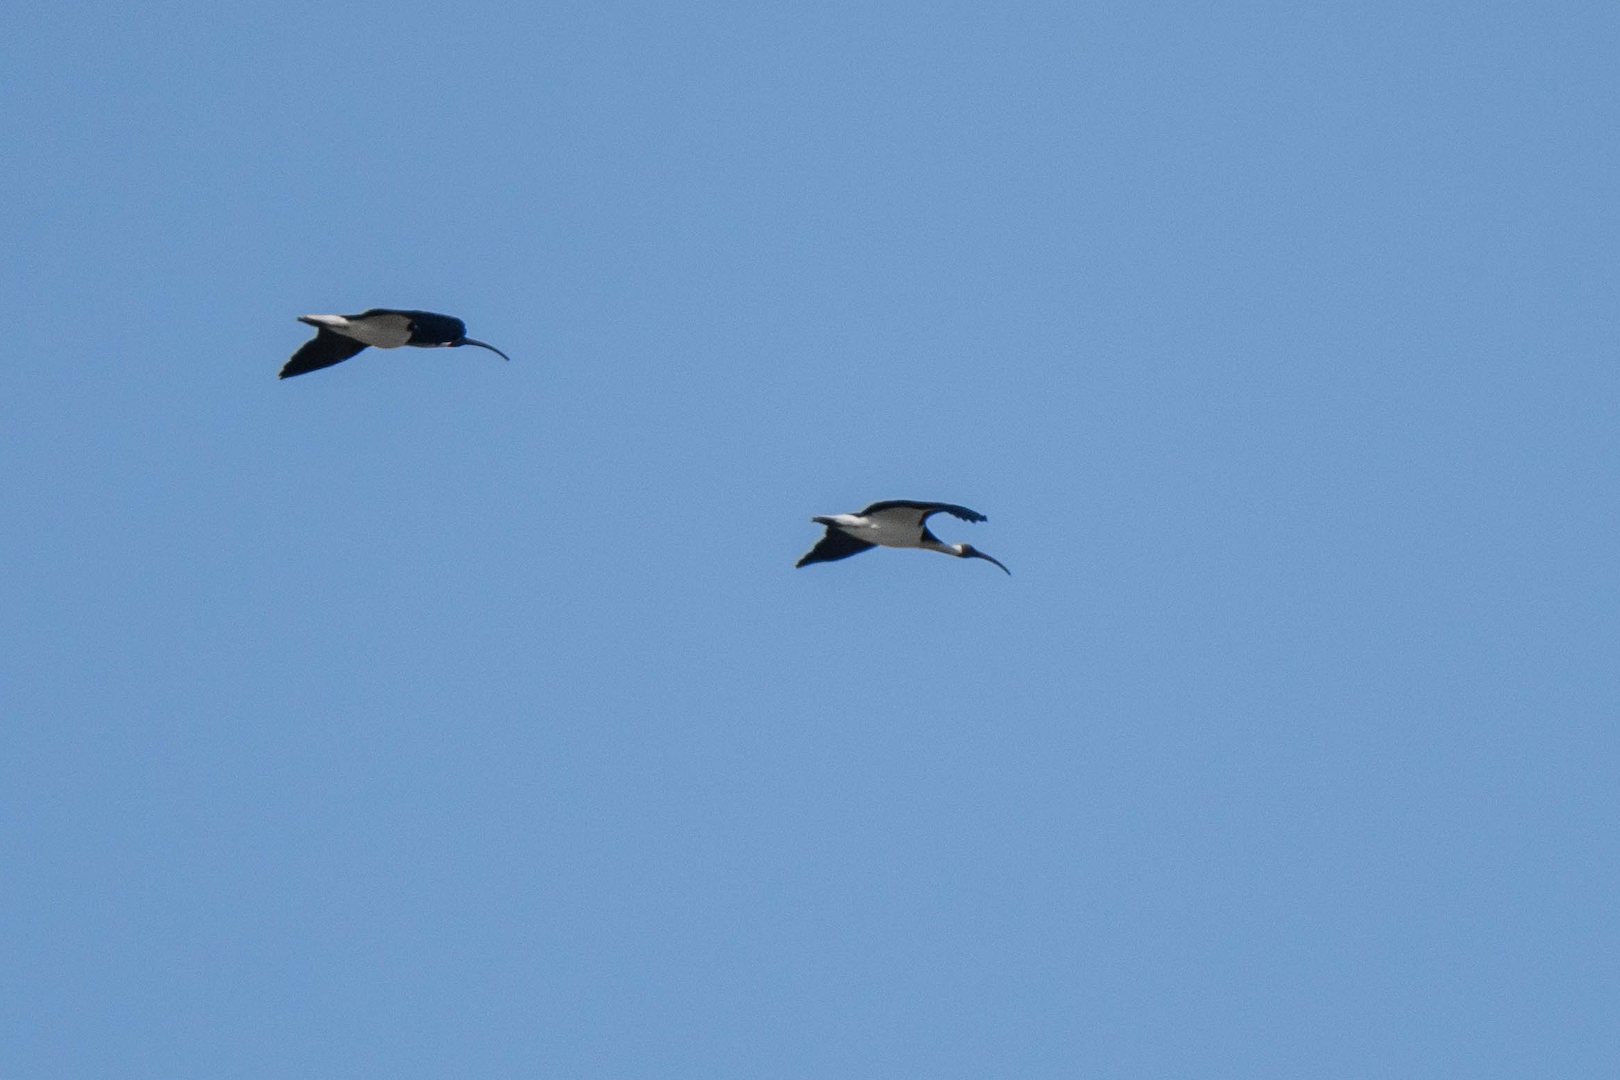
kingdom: Animalia
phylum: Chordata
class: Aves
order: Pelecaniformes
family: Threskiornithidae
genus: Threskiornis
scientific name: Threskiornis spinicollis
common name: Straw-necked ibis
